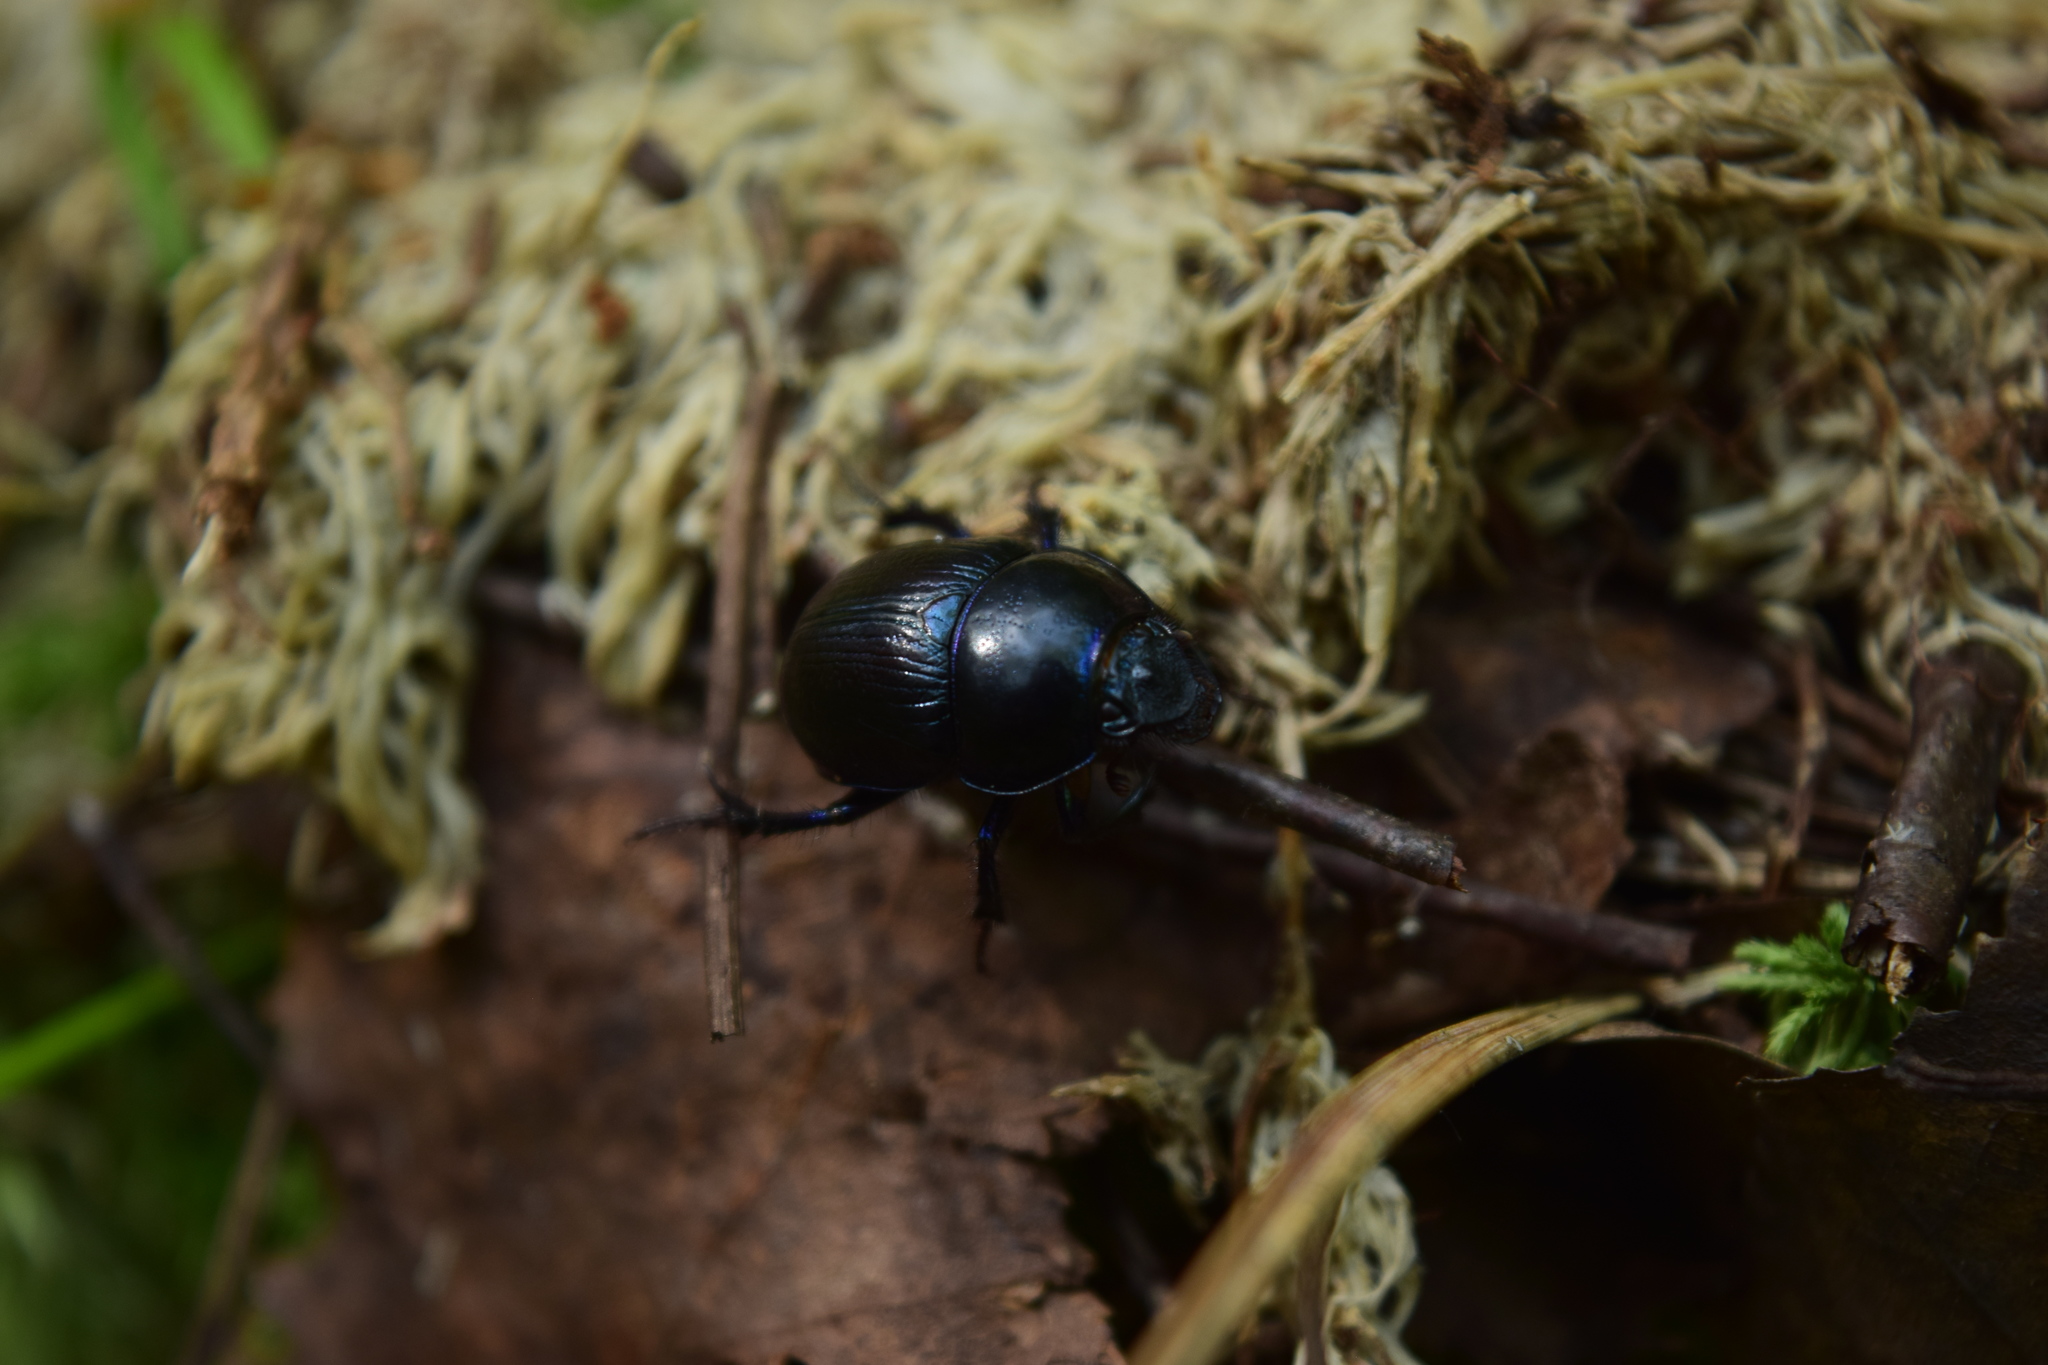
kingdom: Animalia
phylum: Arthropoda
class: Insecta
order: Coleoptera
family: Geotrupidae
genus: Anoplotrupes
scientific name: Anoplotrupes stercorosus
